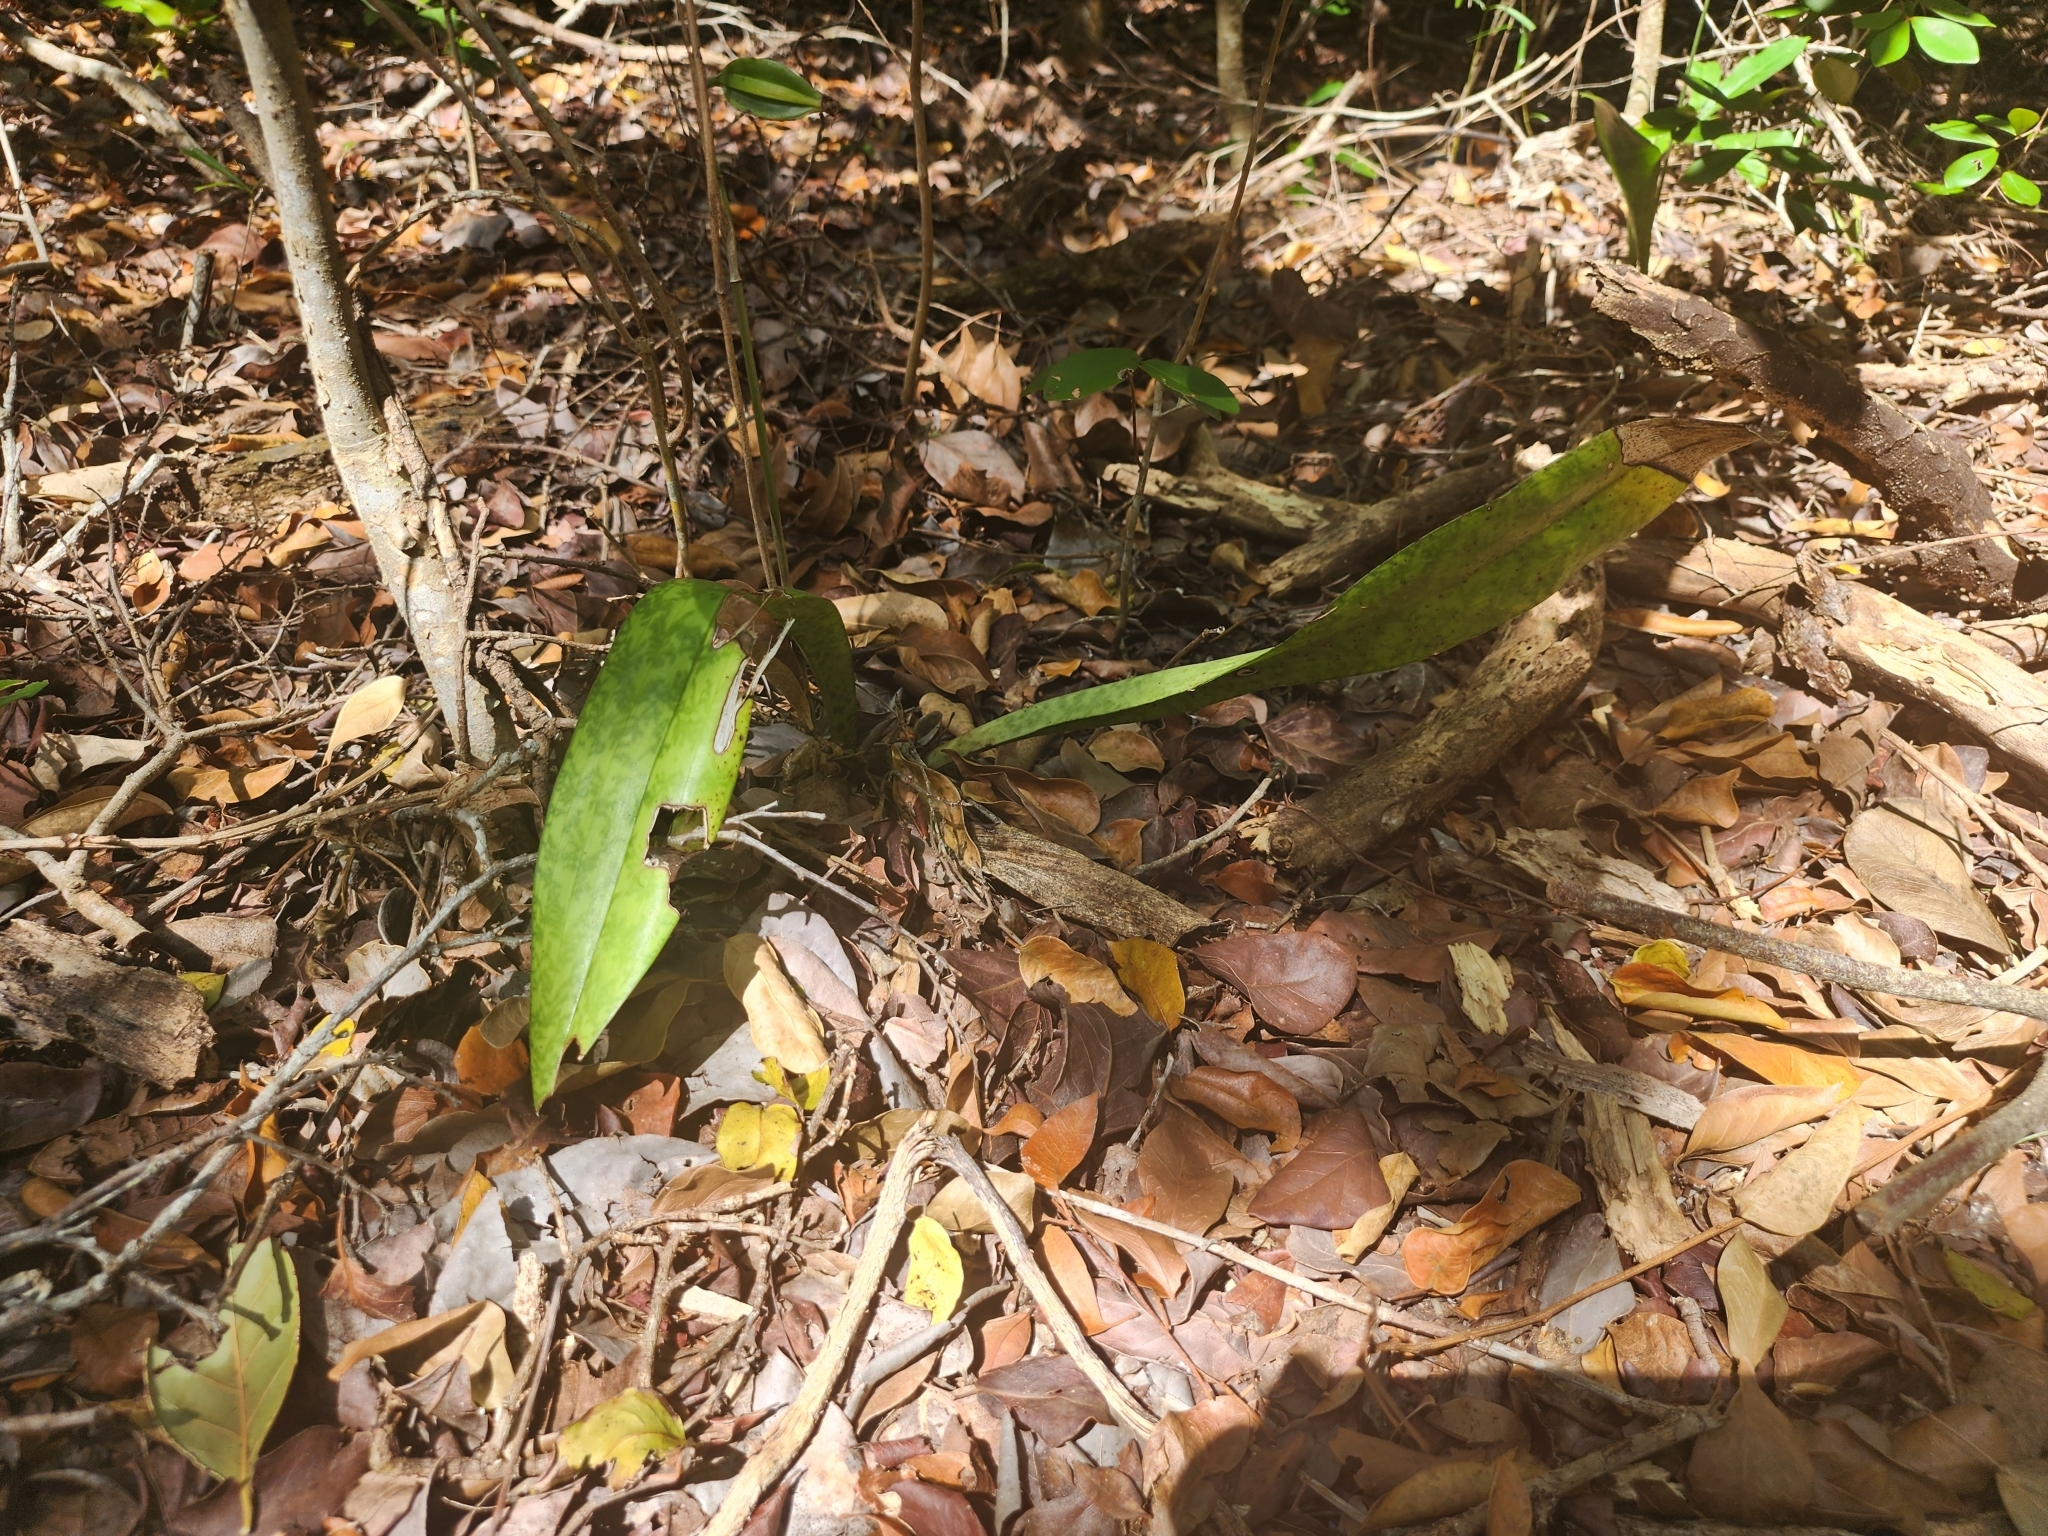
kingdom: Plantae
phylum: Tracheophyta
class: Liliopsida
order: Asparagales
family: Orchidaceae
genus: Eulophia
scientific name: Eulophia maculata
